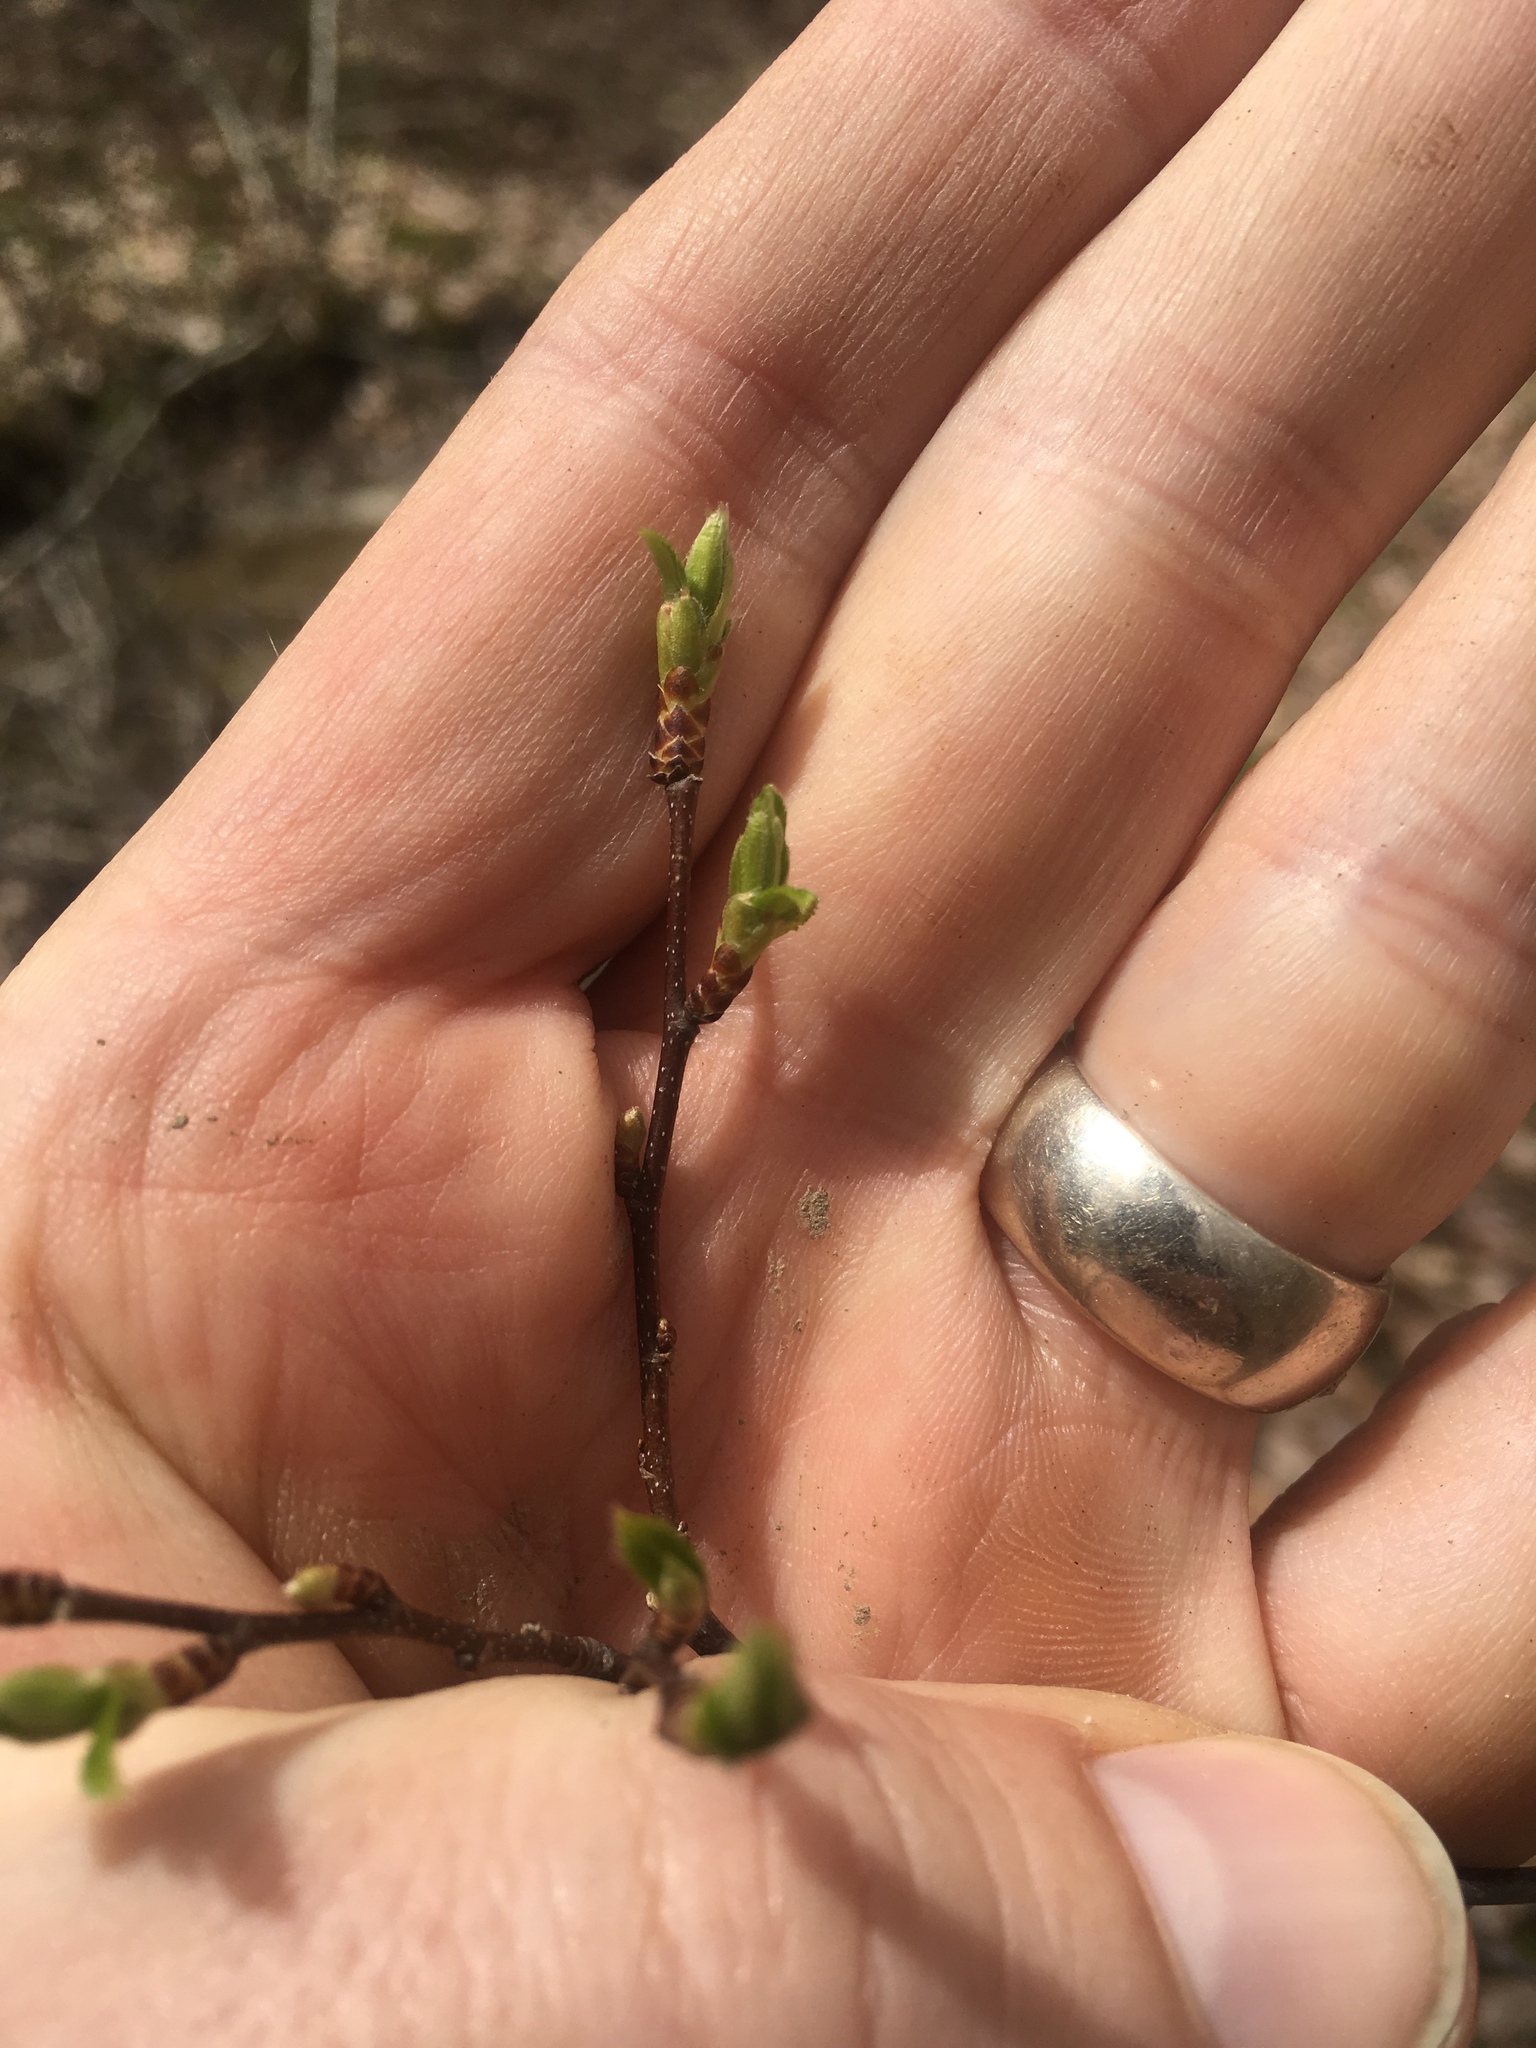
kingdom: Plantae
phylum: Tracheophyta
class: Magnoliopsida
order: Fagales
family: Betulaceae
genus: Carpinus
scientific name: Carpinus caroliniana
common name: American hornbeam
